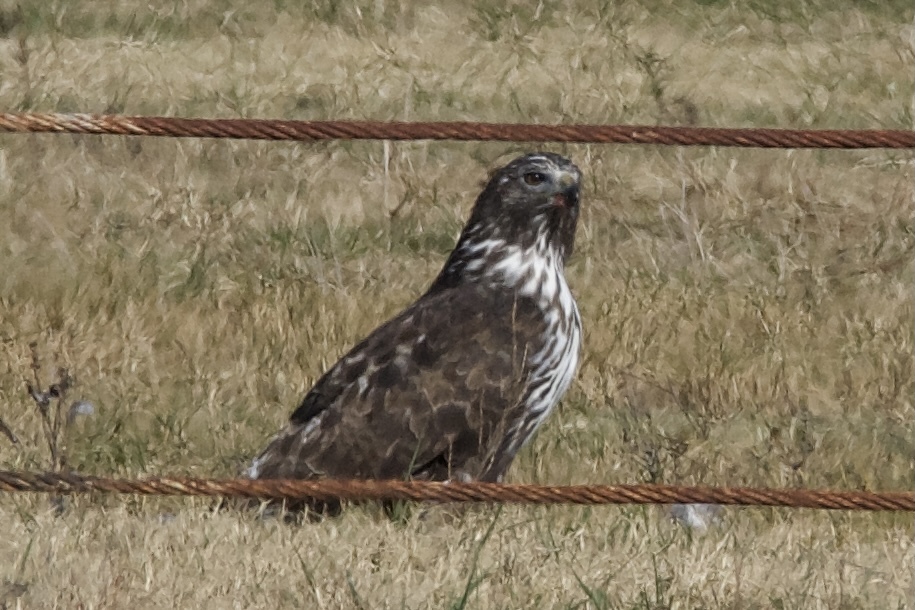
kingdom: Animalia
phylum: Chordata
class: Aves
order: Accipitriformes
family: Accipitridae
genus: Buteo
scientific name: Buteo jamaicensis
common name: Red-tailed hawk
